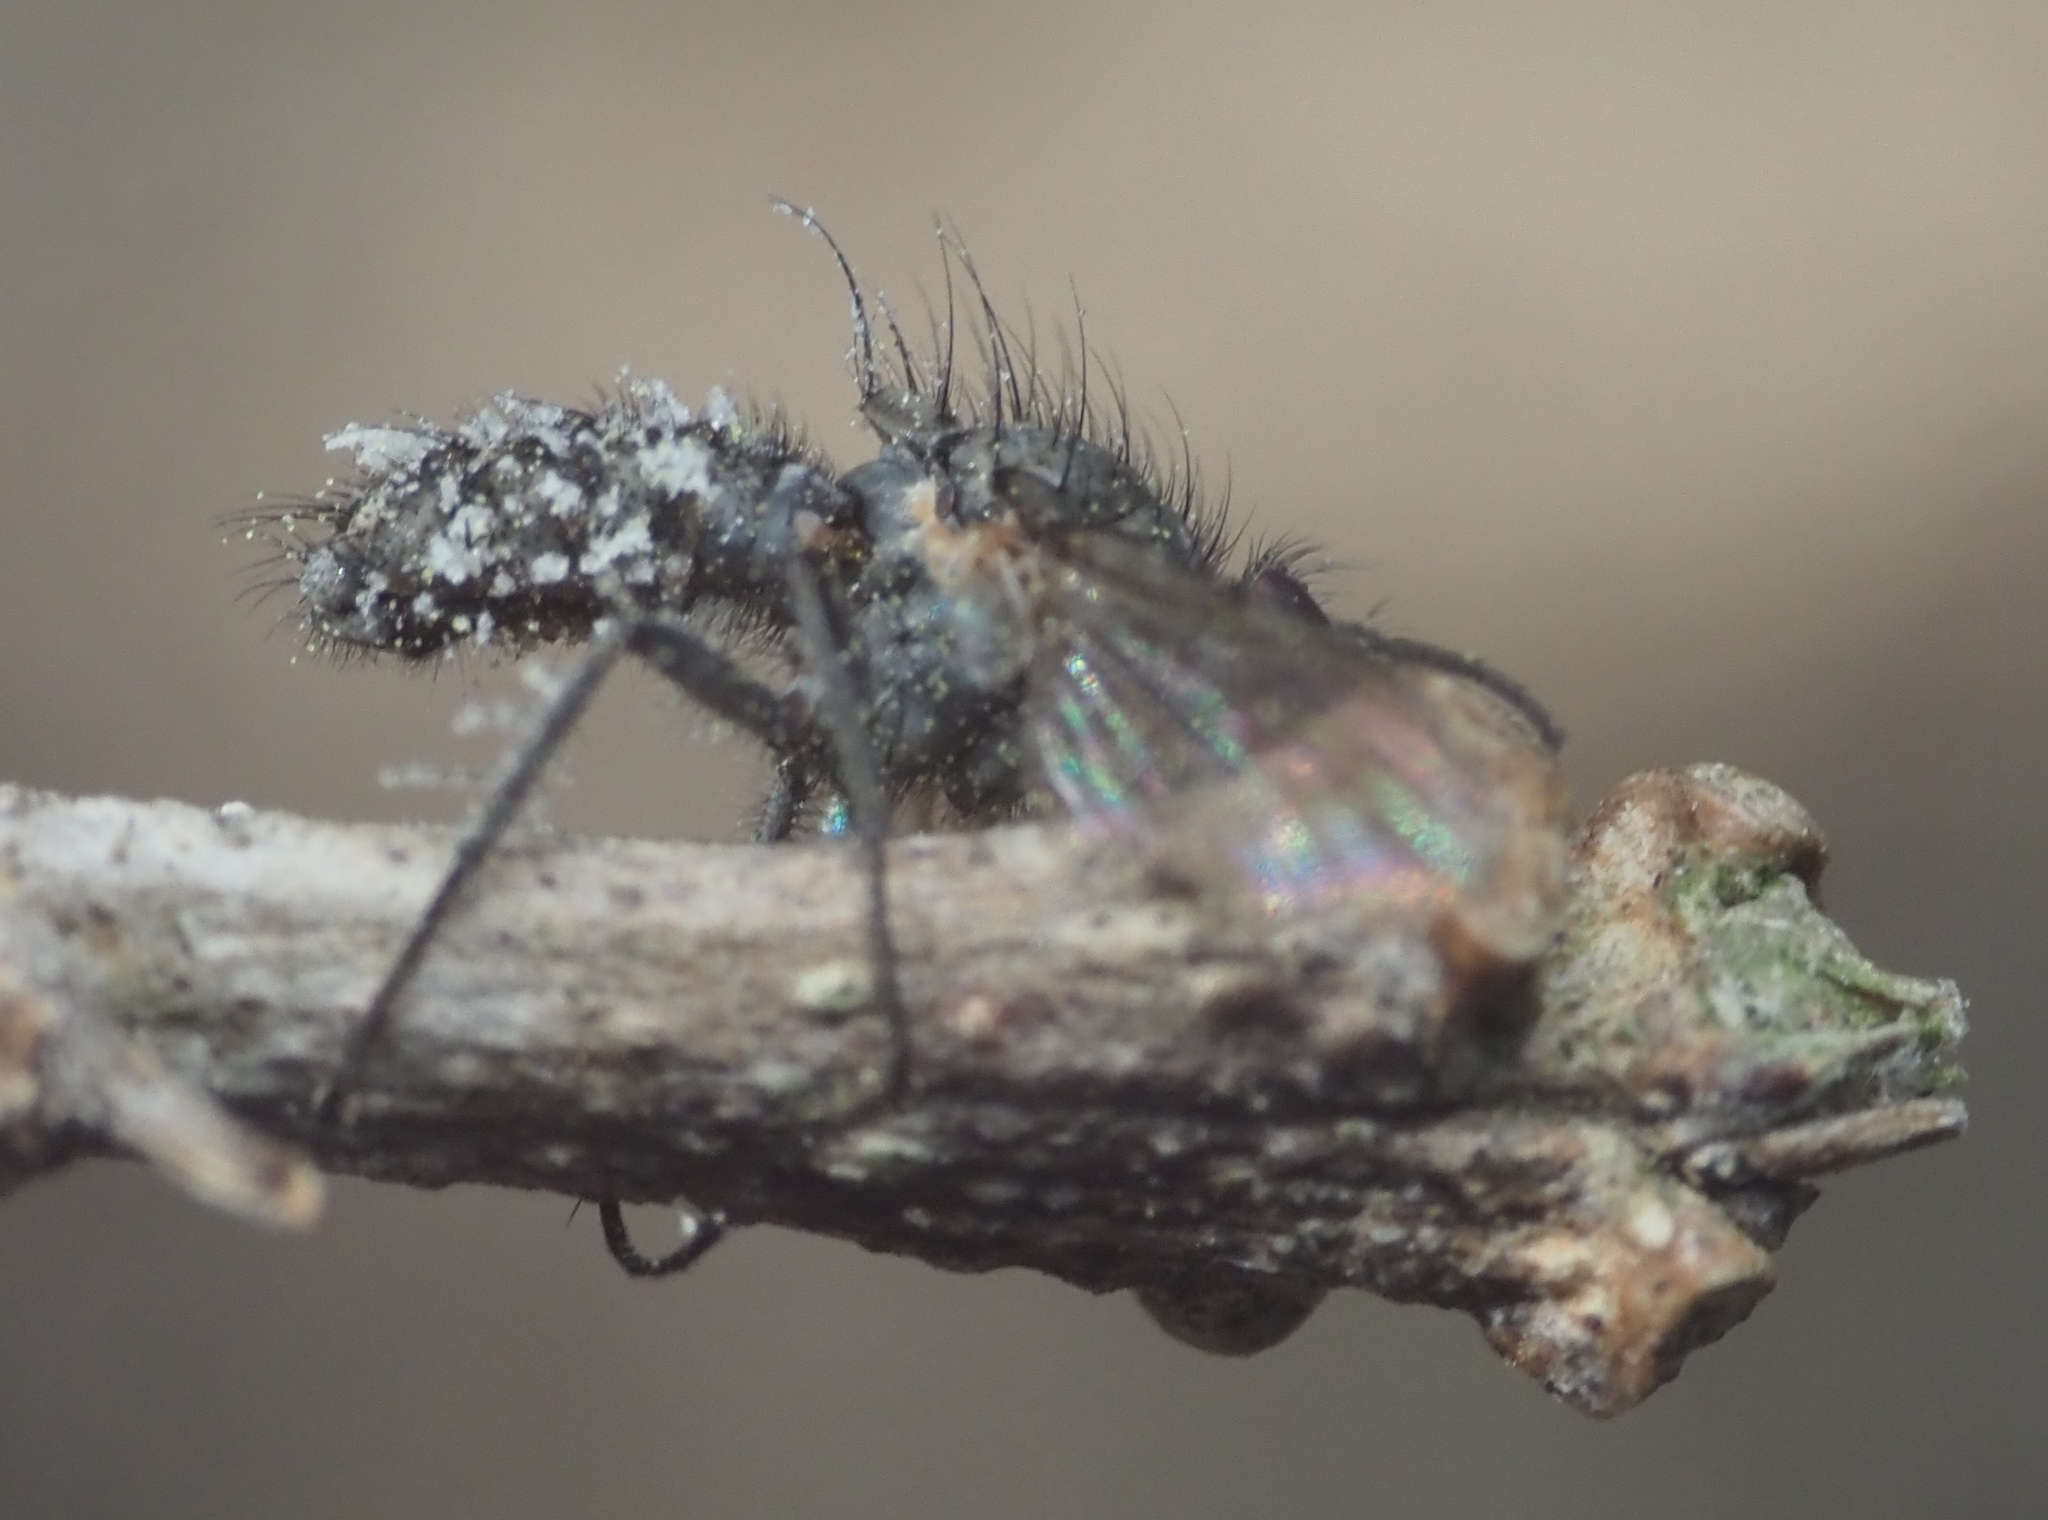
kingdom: Fungi
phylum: Entomophthoromycota
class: Entomophthoromycetes
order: Entomophthorales
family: Entomophthoraceae
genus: Entomophthora
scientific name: Entomophthora
